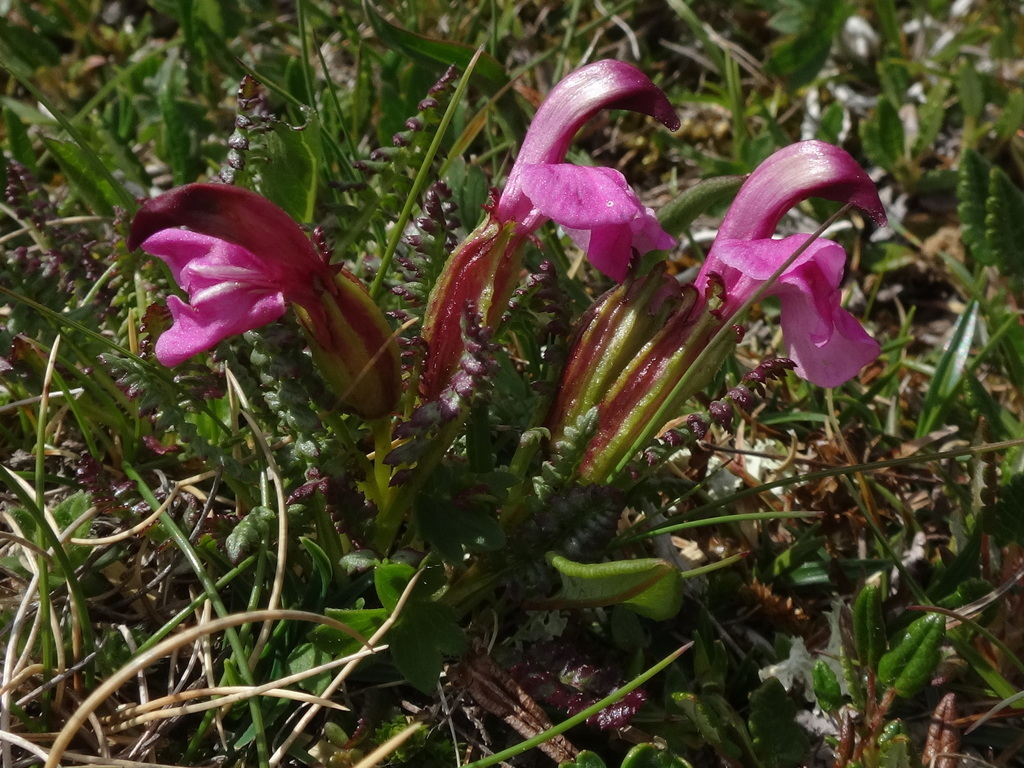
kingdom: Plantae
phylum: Tracheophyta
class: Magnoliopsida
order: Lamiales
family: Orobanchaceae
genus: Pedicularis
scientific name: Pedicularis portenschlagii
